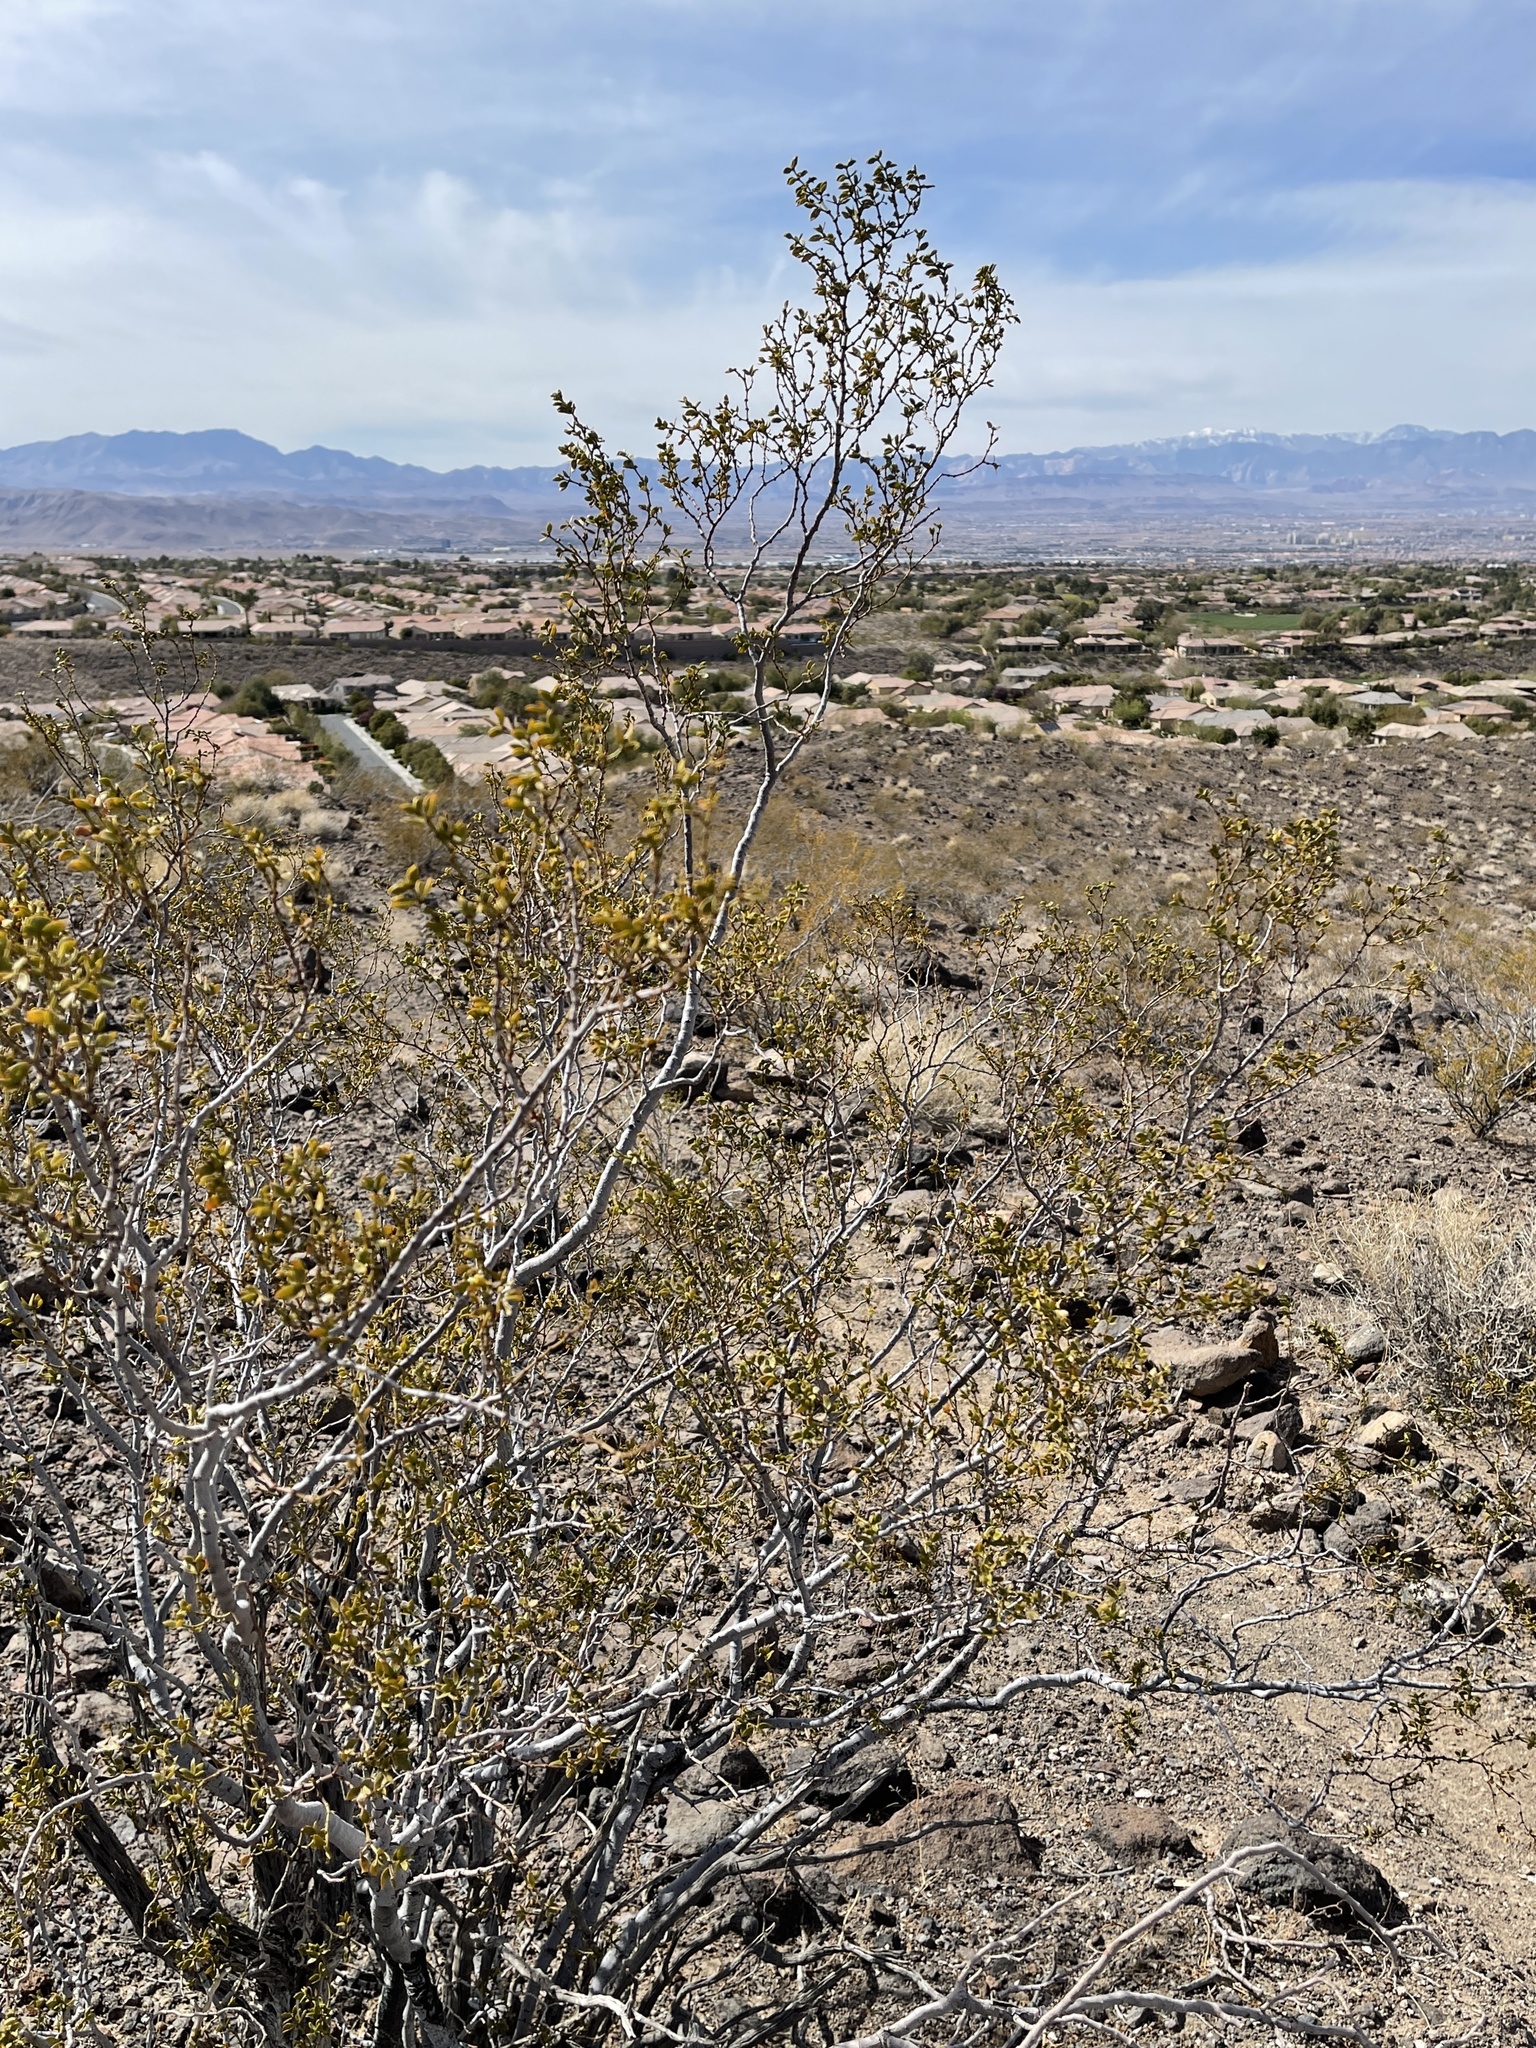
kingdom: Plantae
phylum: Tracheophyta
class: Magnoliopsida
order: Zygophyllales
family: Zygophyllaceae
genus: Larrea
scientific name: Larrea tridentata
